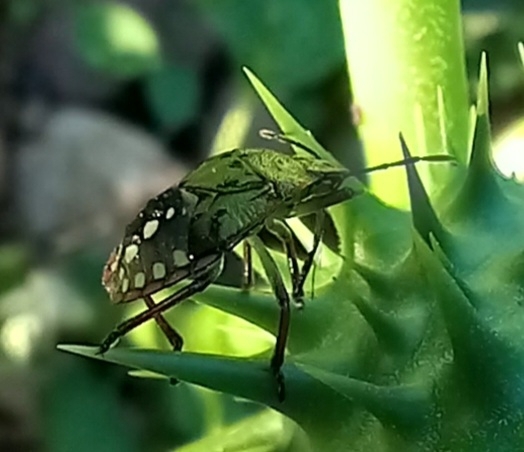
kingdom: Animalia
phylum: Arthropoda
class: Insecta
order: Hemiptera
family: Pentatomidae
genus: Nezara
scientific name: Nezara viridula
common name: Southern green stink bug
